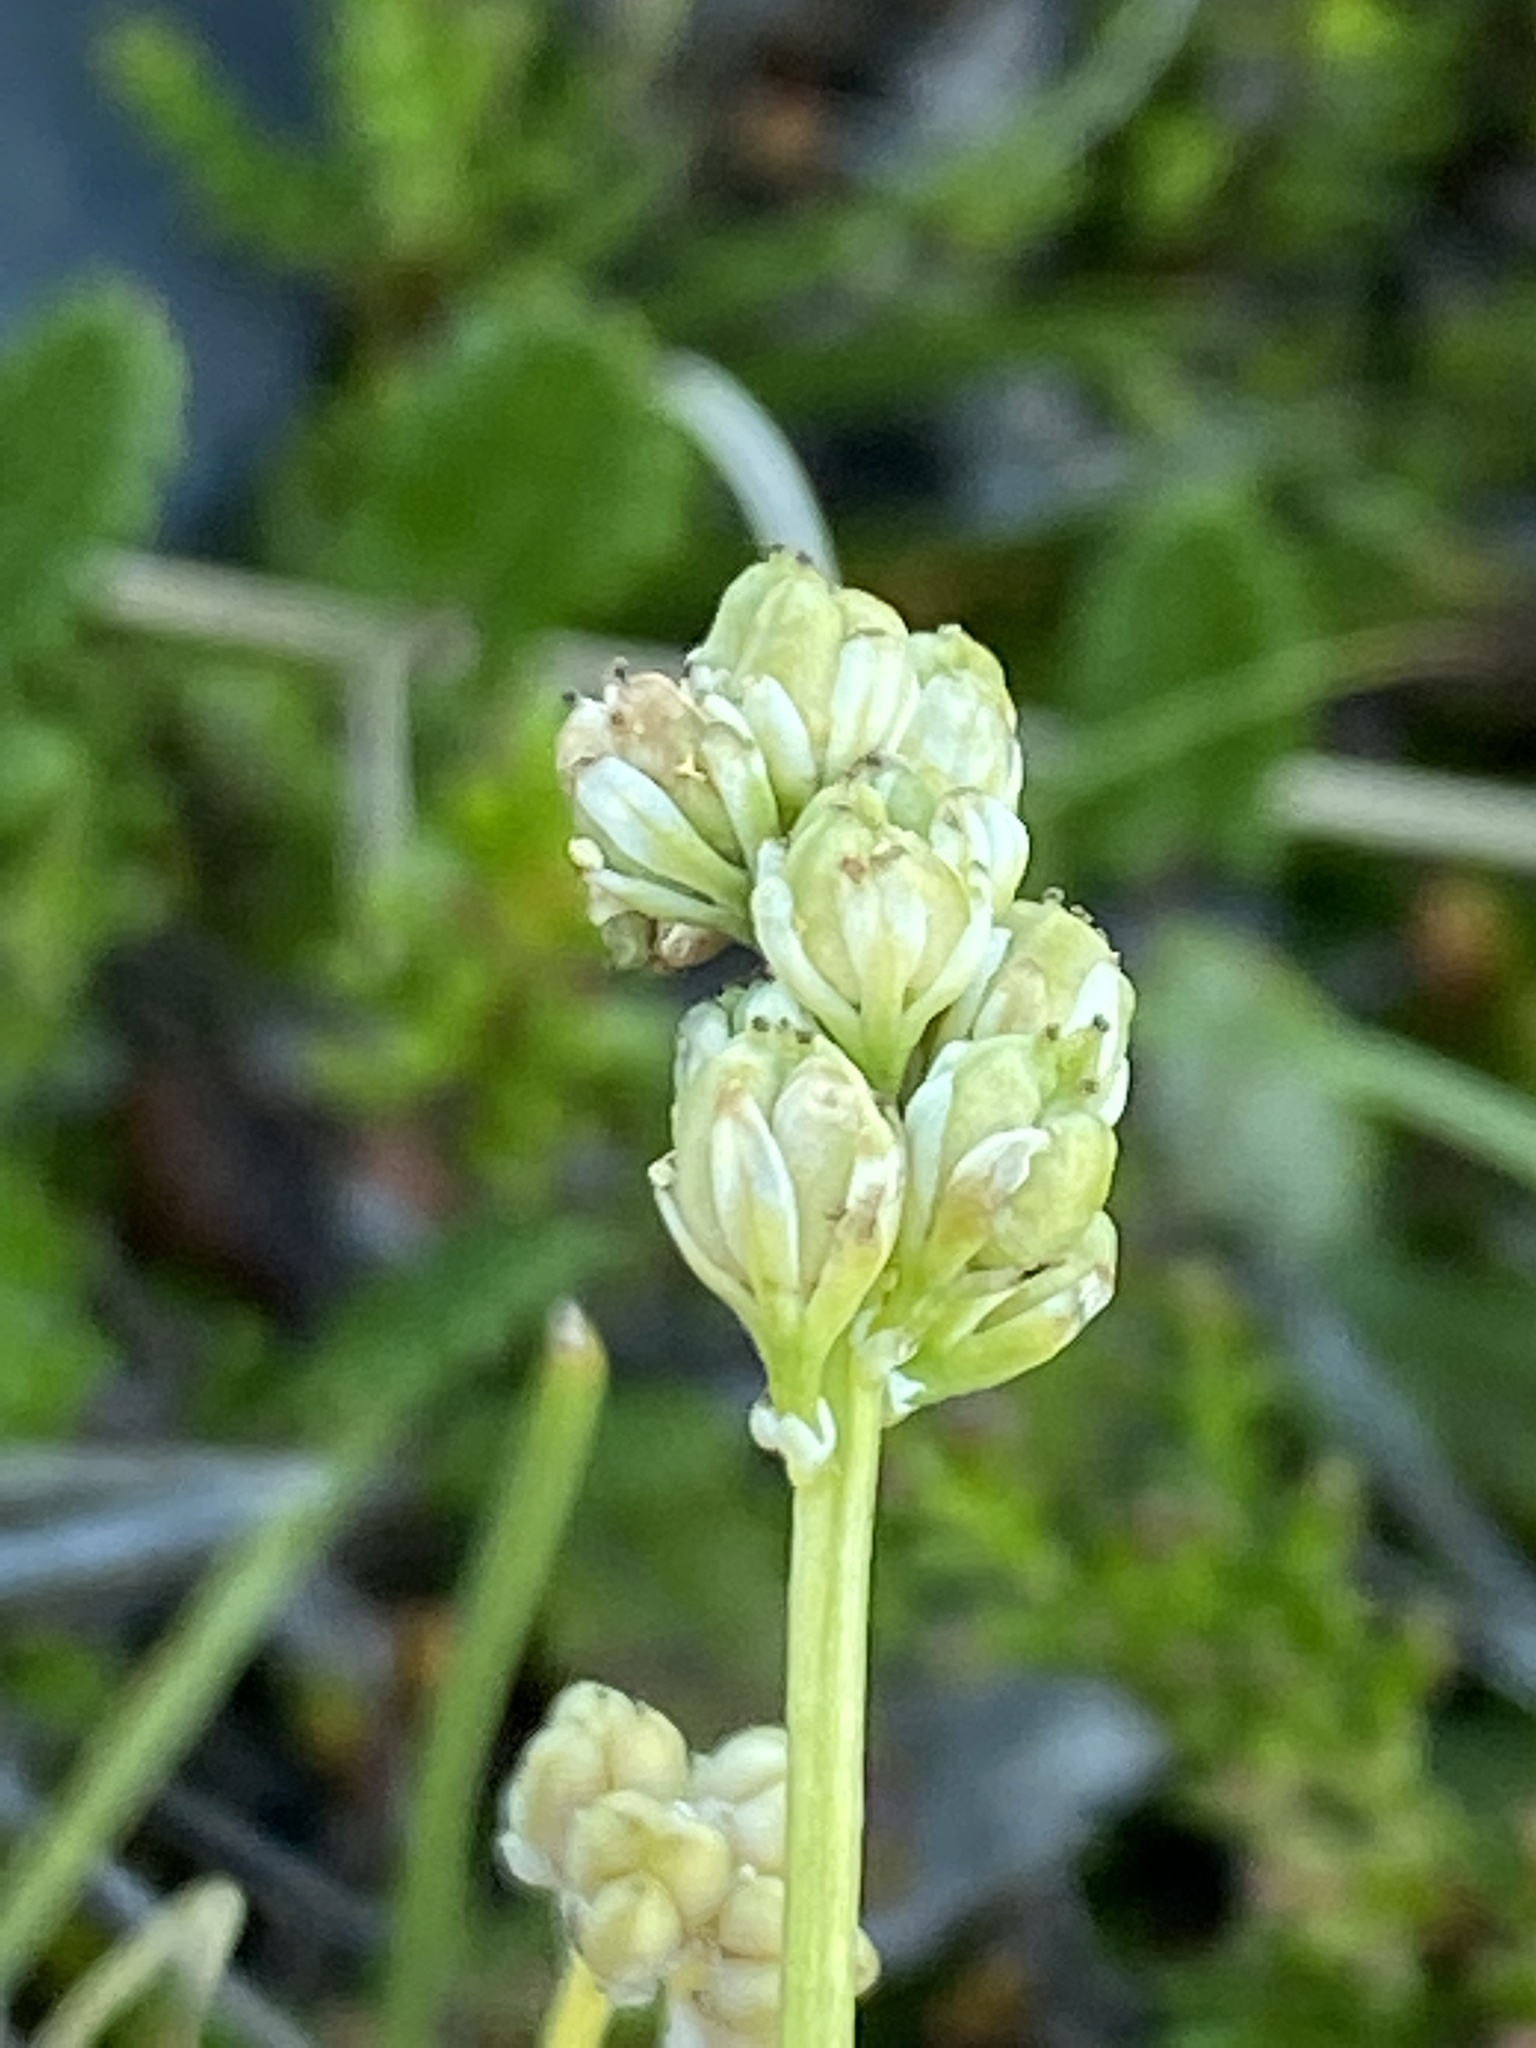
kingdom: Plantae
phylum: Tracheophyta
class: Liliopsida
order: Alismatales
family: Tofieldiaceae
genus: Tofieldia
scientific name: Tofieldia pusilla
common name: Scottish false asphodel
